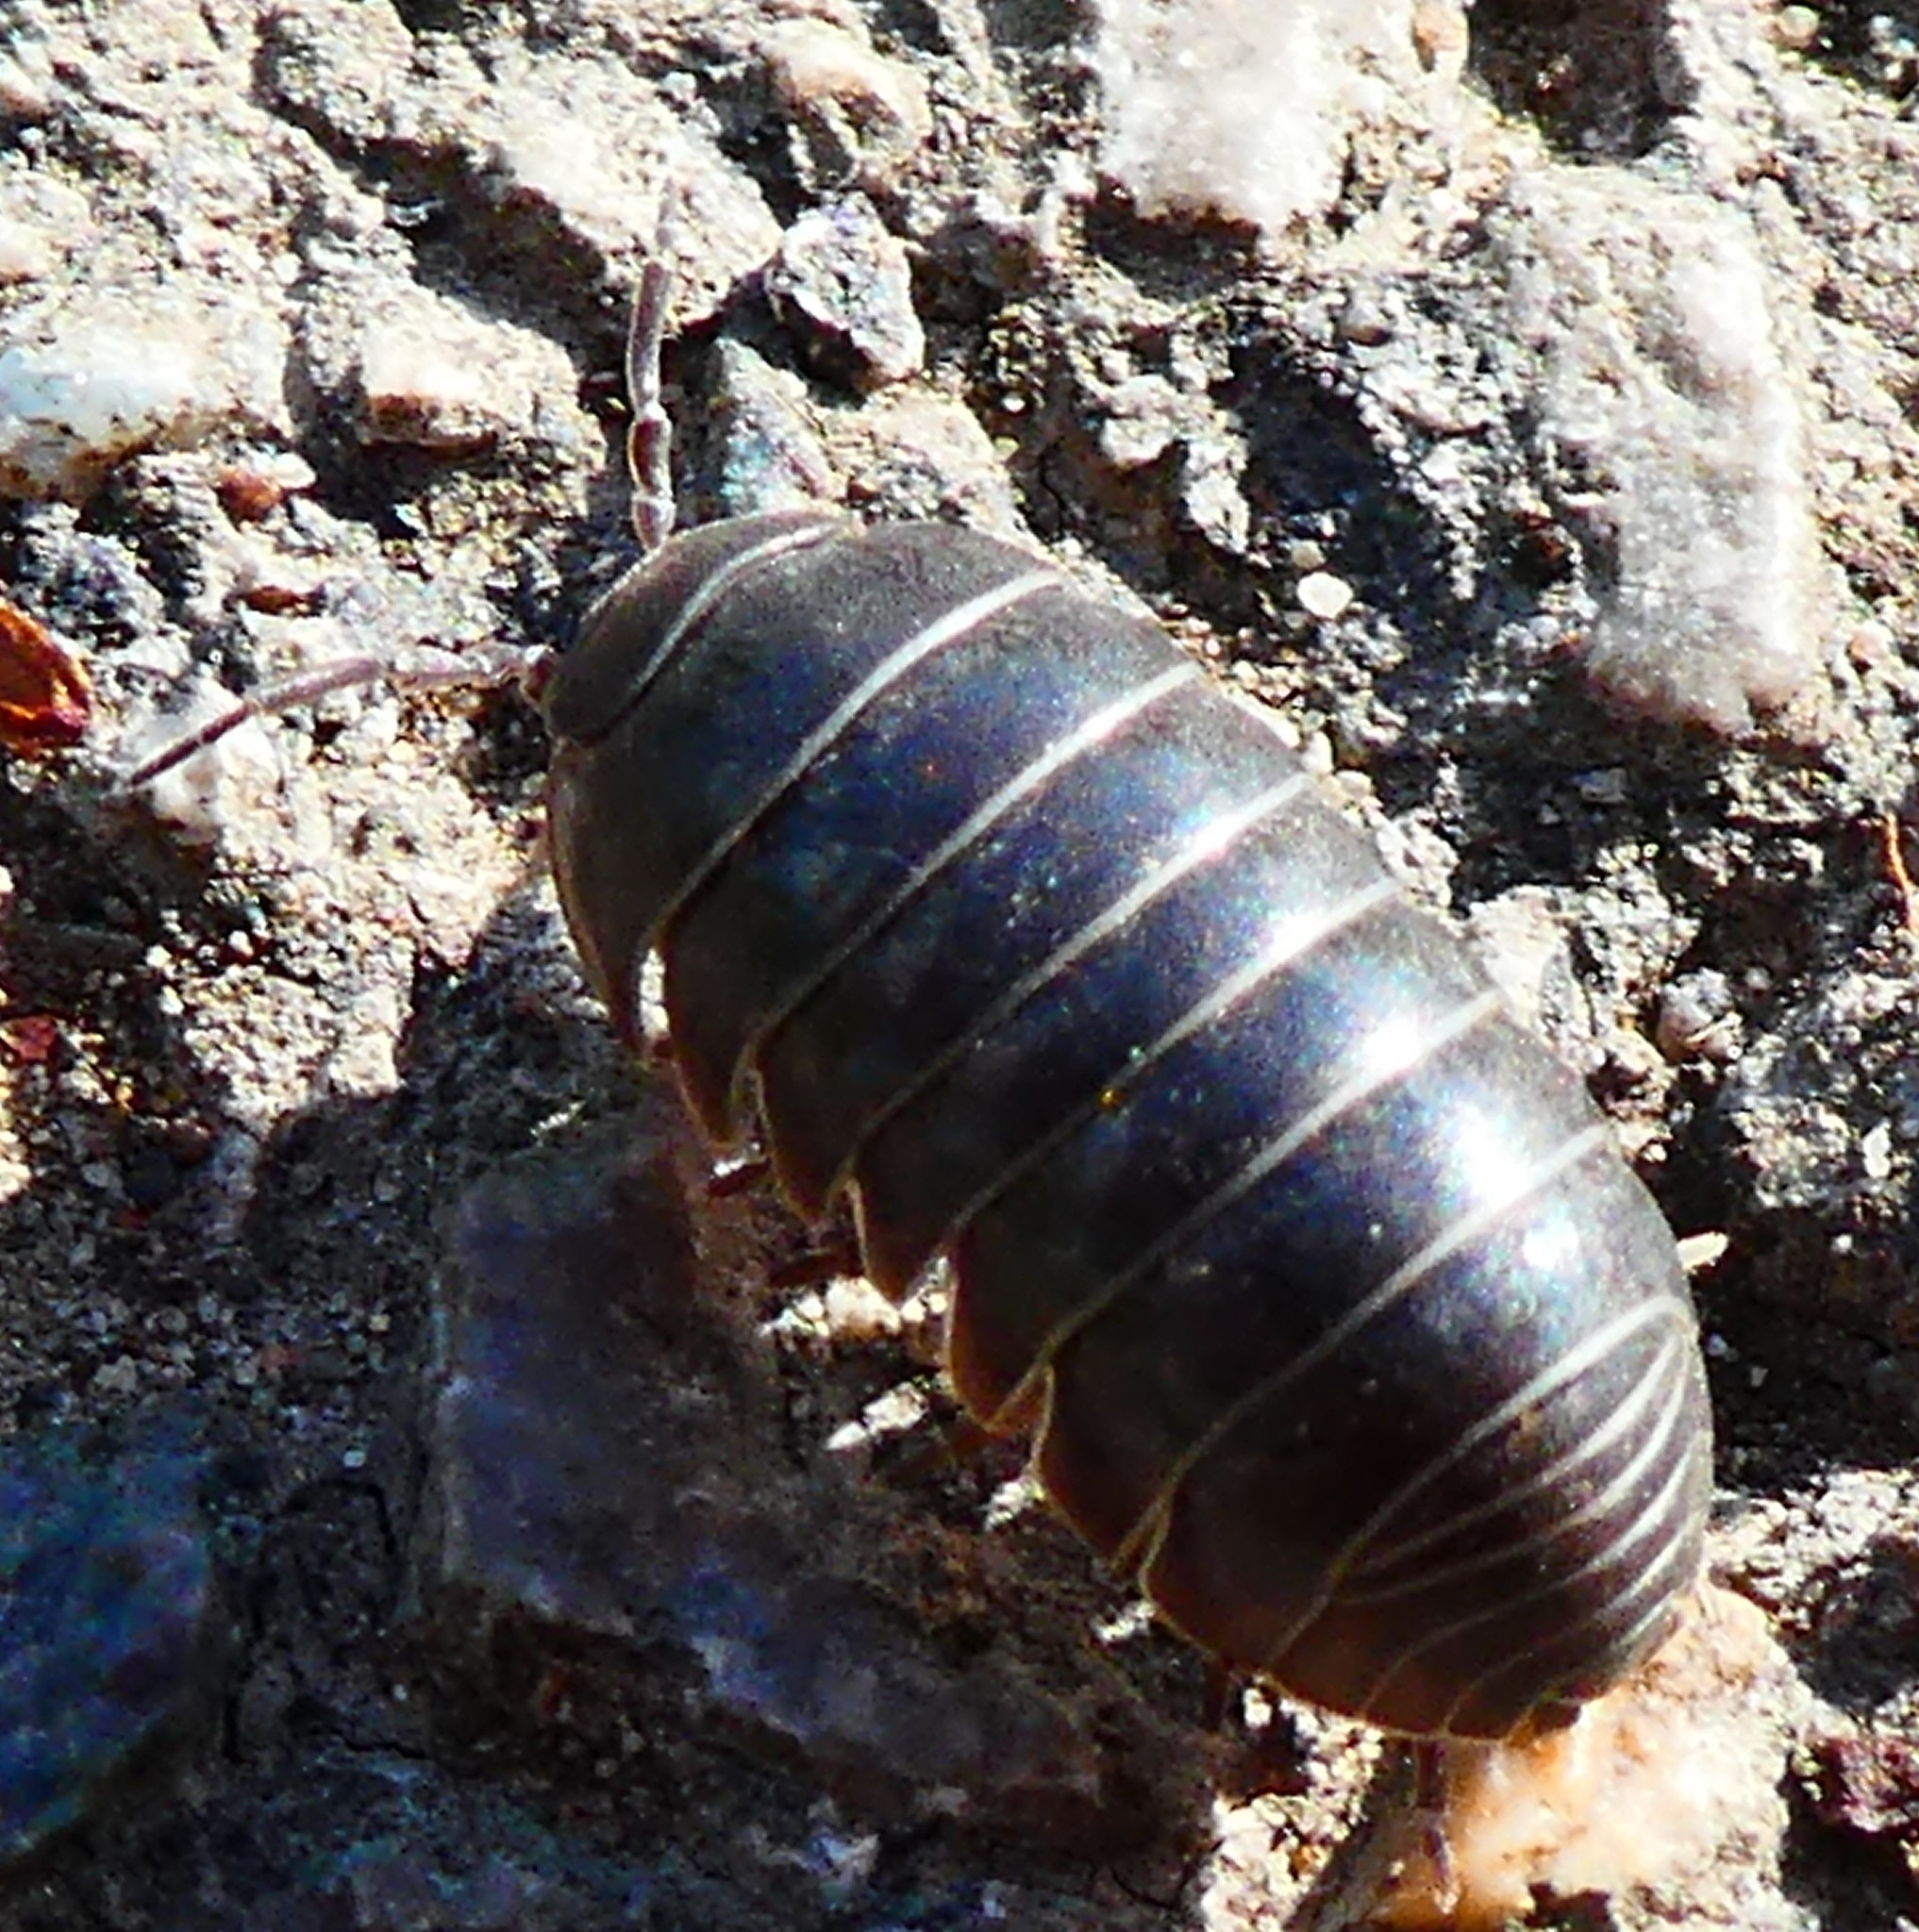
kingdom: Animalia
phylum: Arthropoda
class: Malacostraca
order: Isopoda
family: Armadillidiidae
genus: Armadillidium
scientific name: Armadillidium vulgare
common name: Common pill woodlouse
